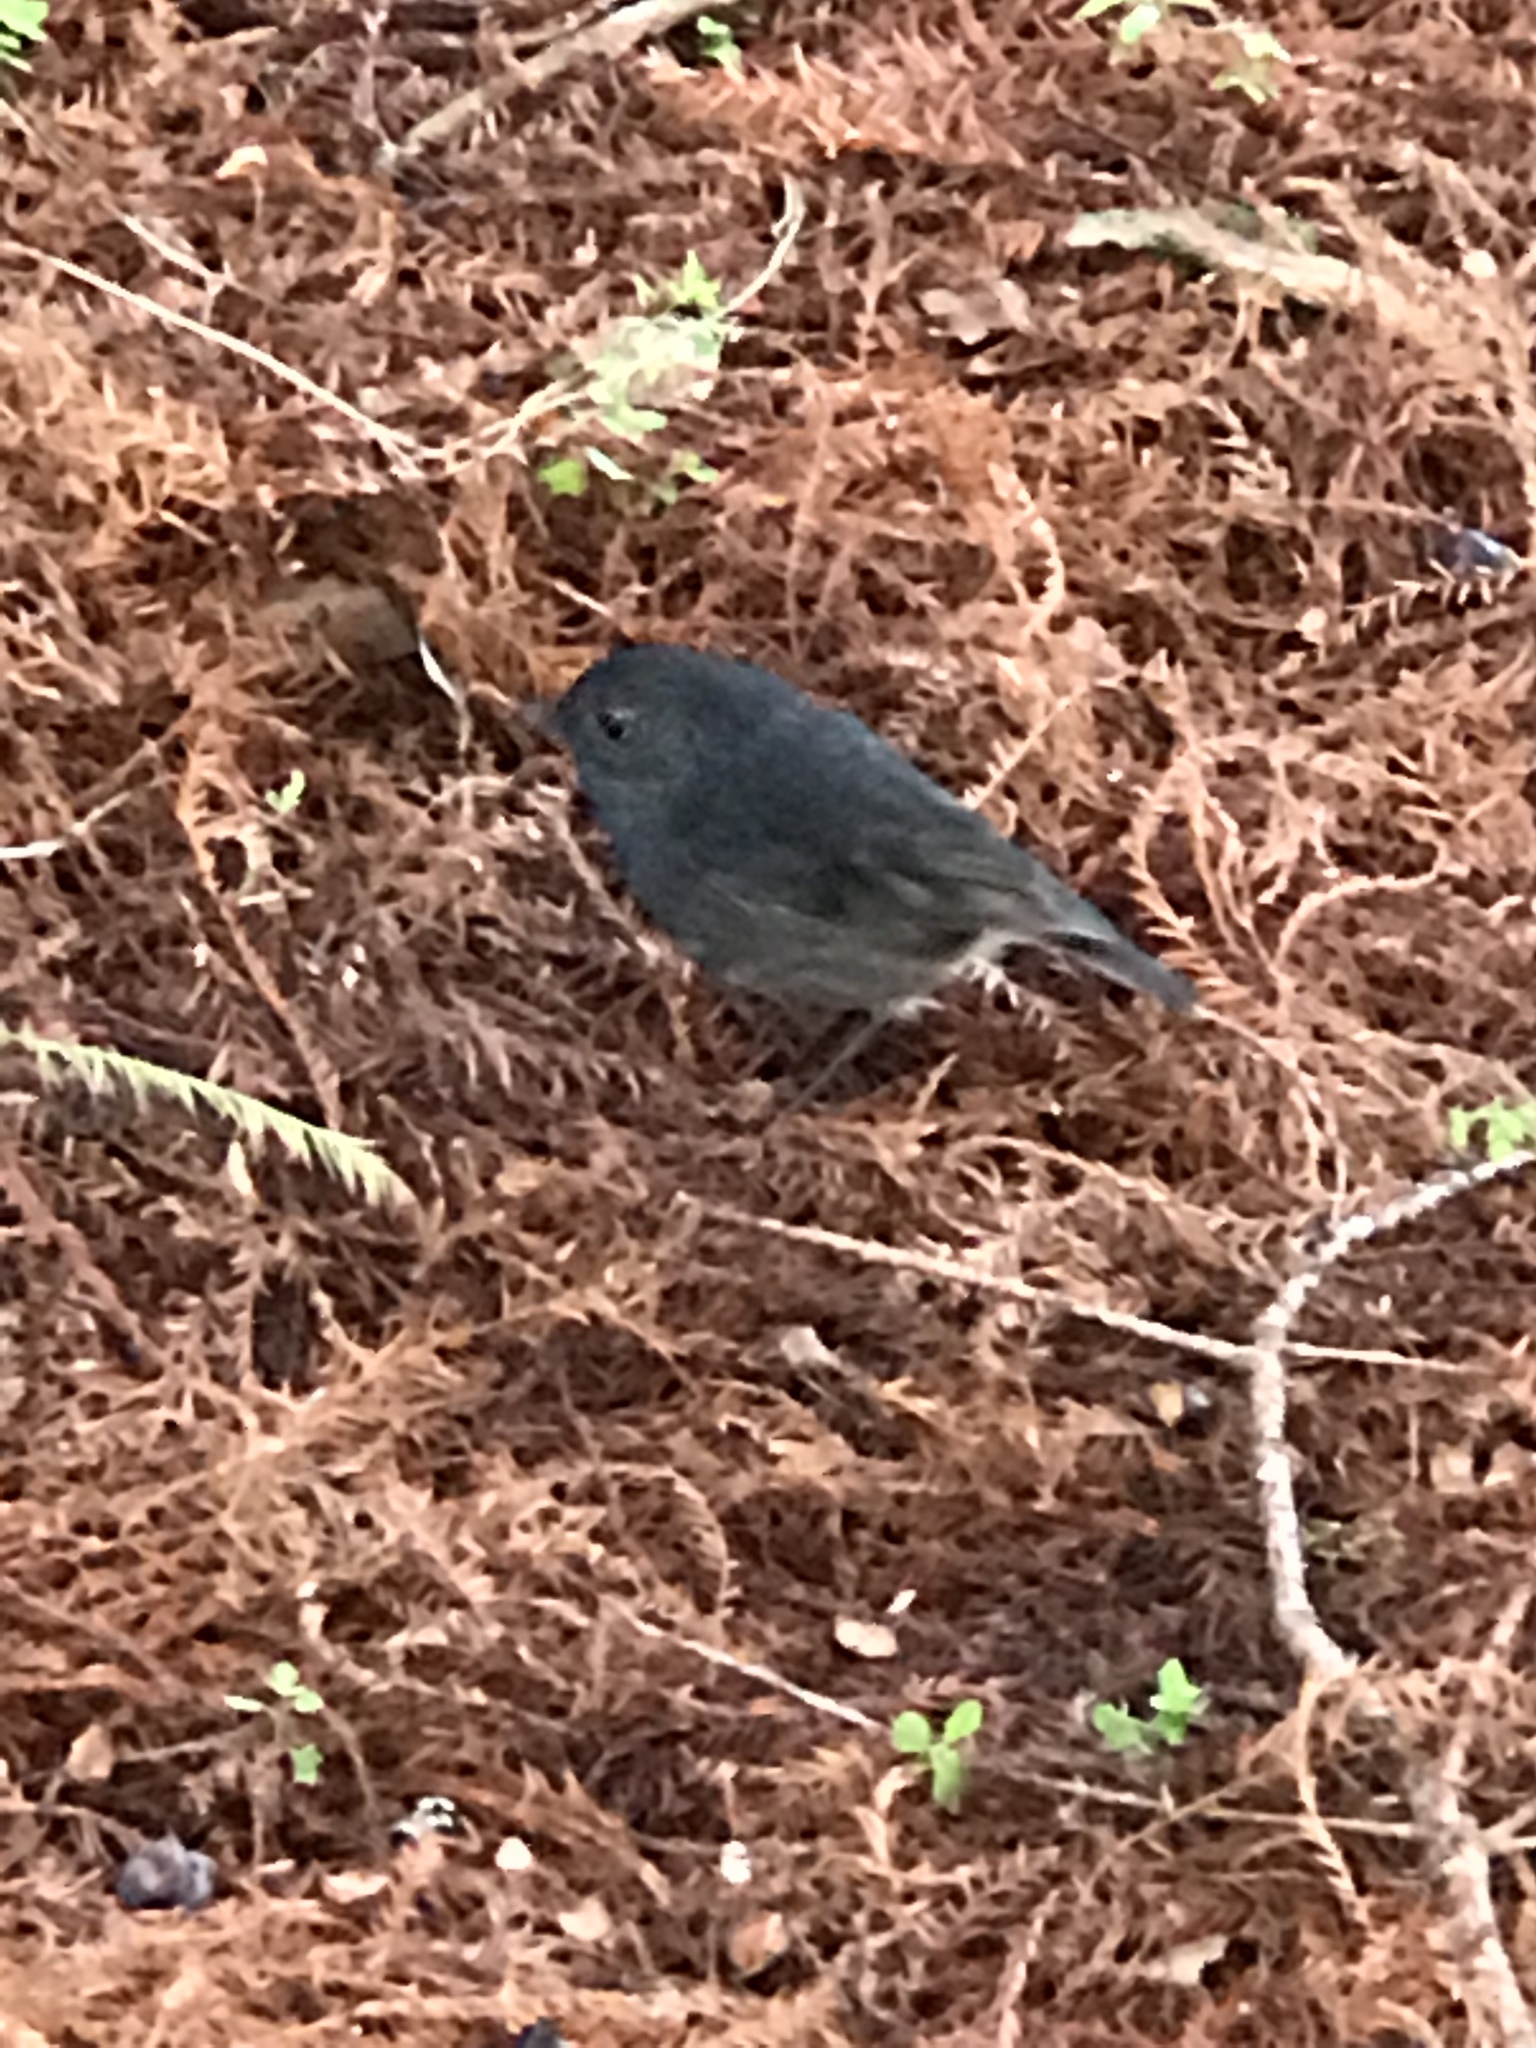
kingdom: Animalia
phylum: Chordata
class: Aves
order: Passeriformes
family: Petroicidae
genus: Petroica
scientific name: Petroica australis
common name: New zealand robin
